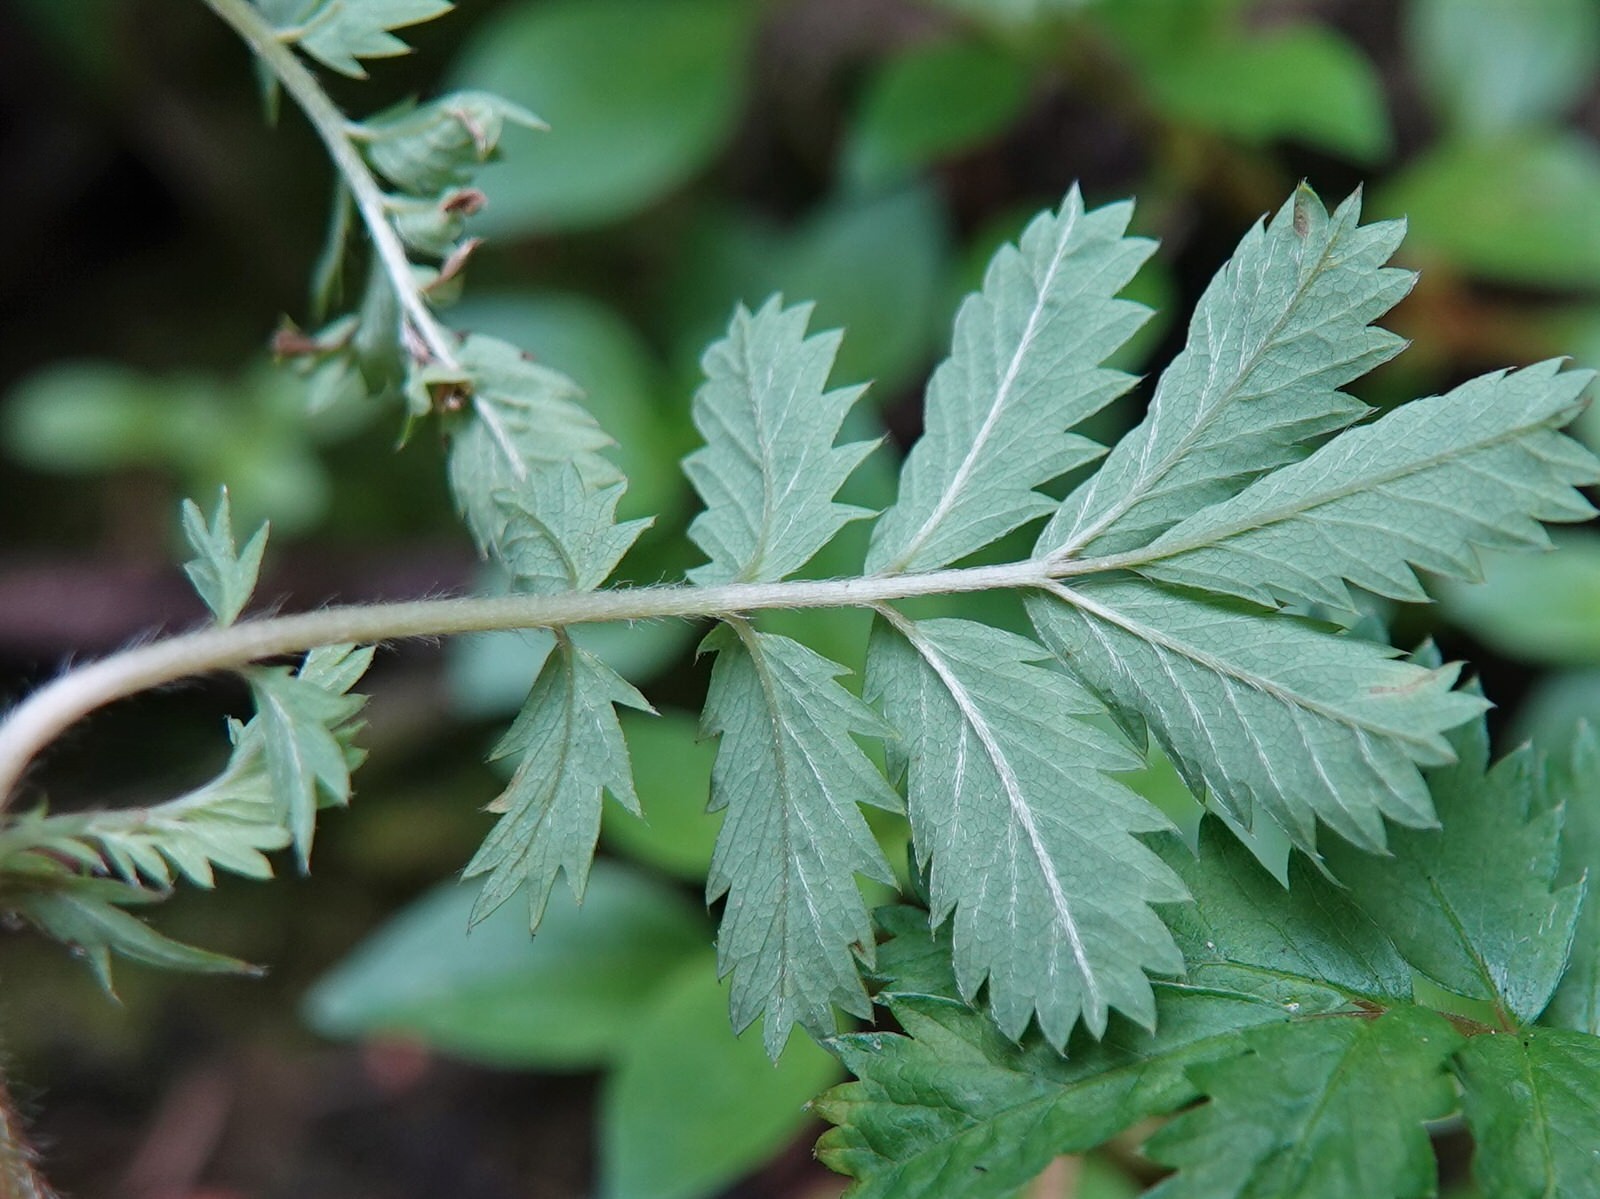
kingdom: Plantae
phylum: Tracheophyta
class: Magnoliopsida
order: Rosales
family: Rosaceae
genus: Acaena
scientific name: Acaena anserinifolia
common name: Bronze pirri-pirri-bur
